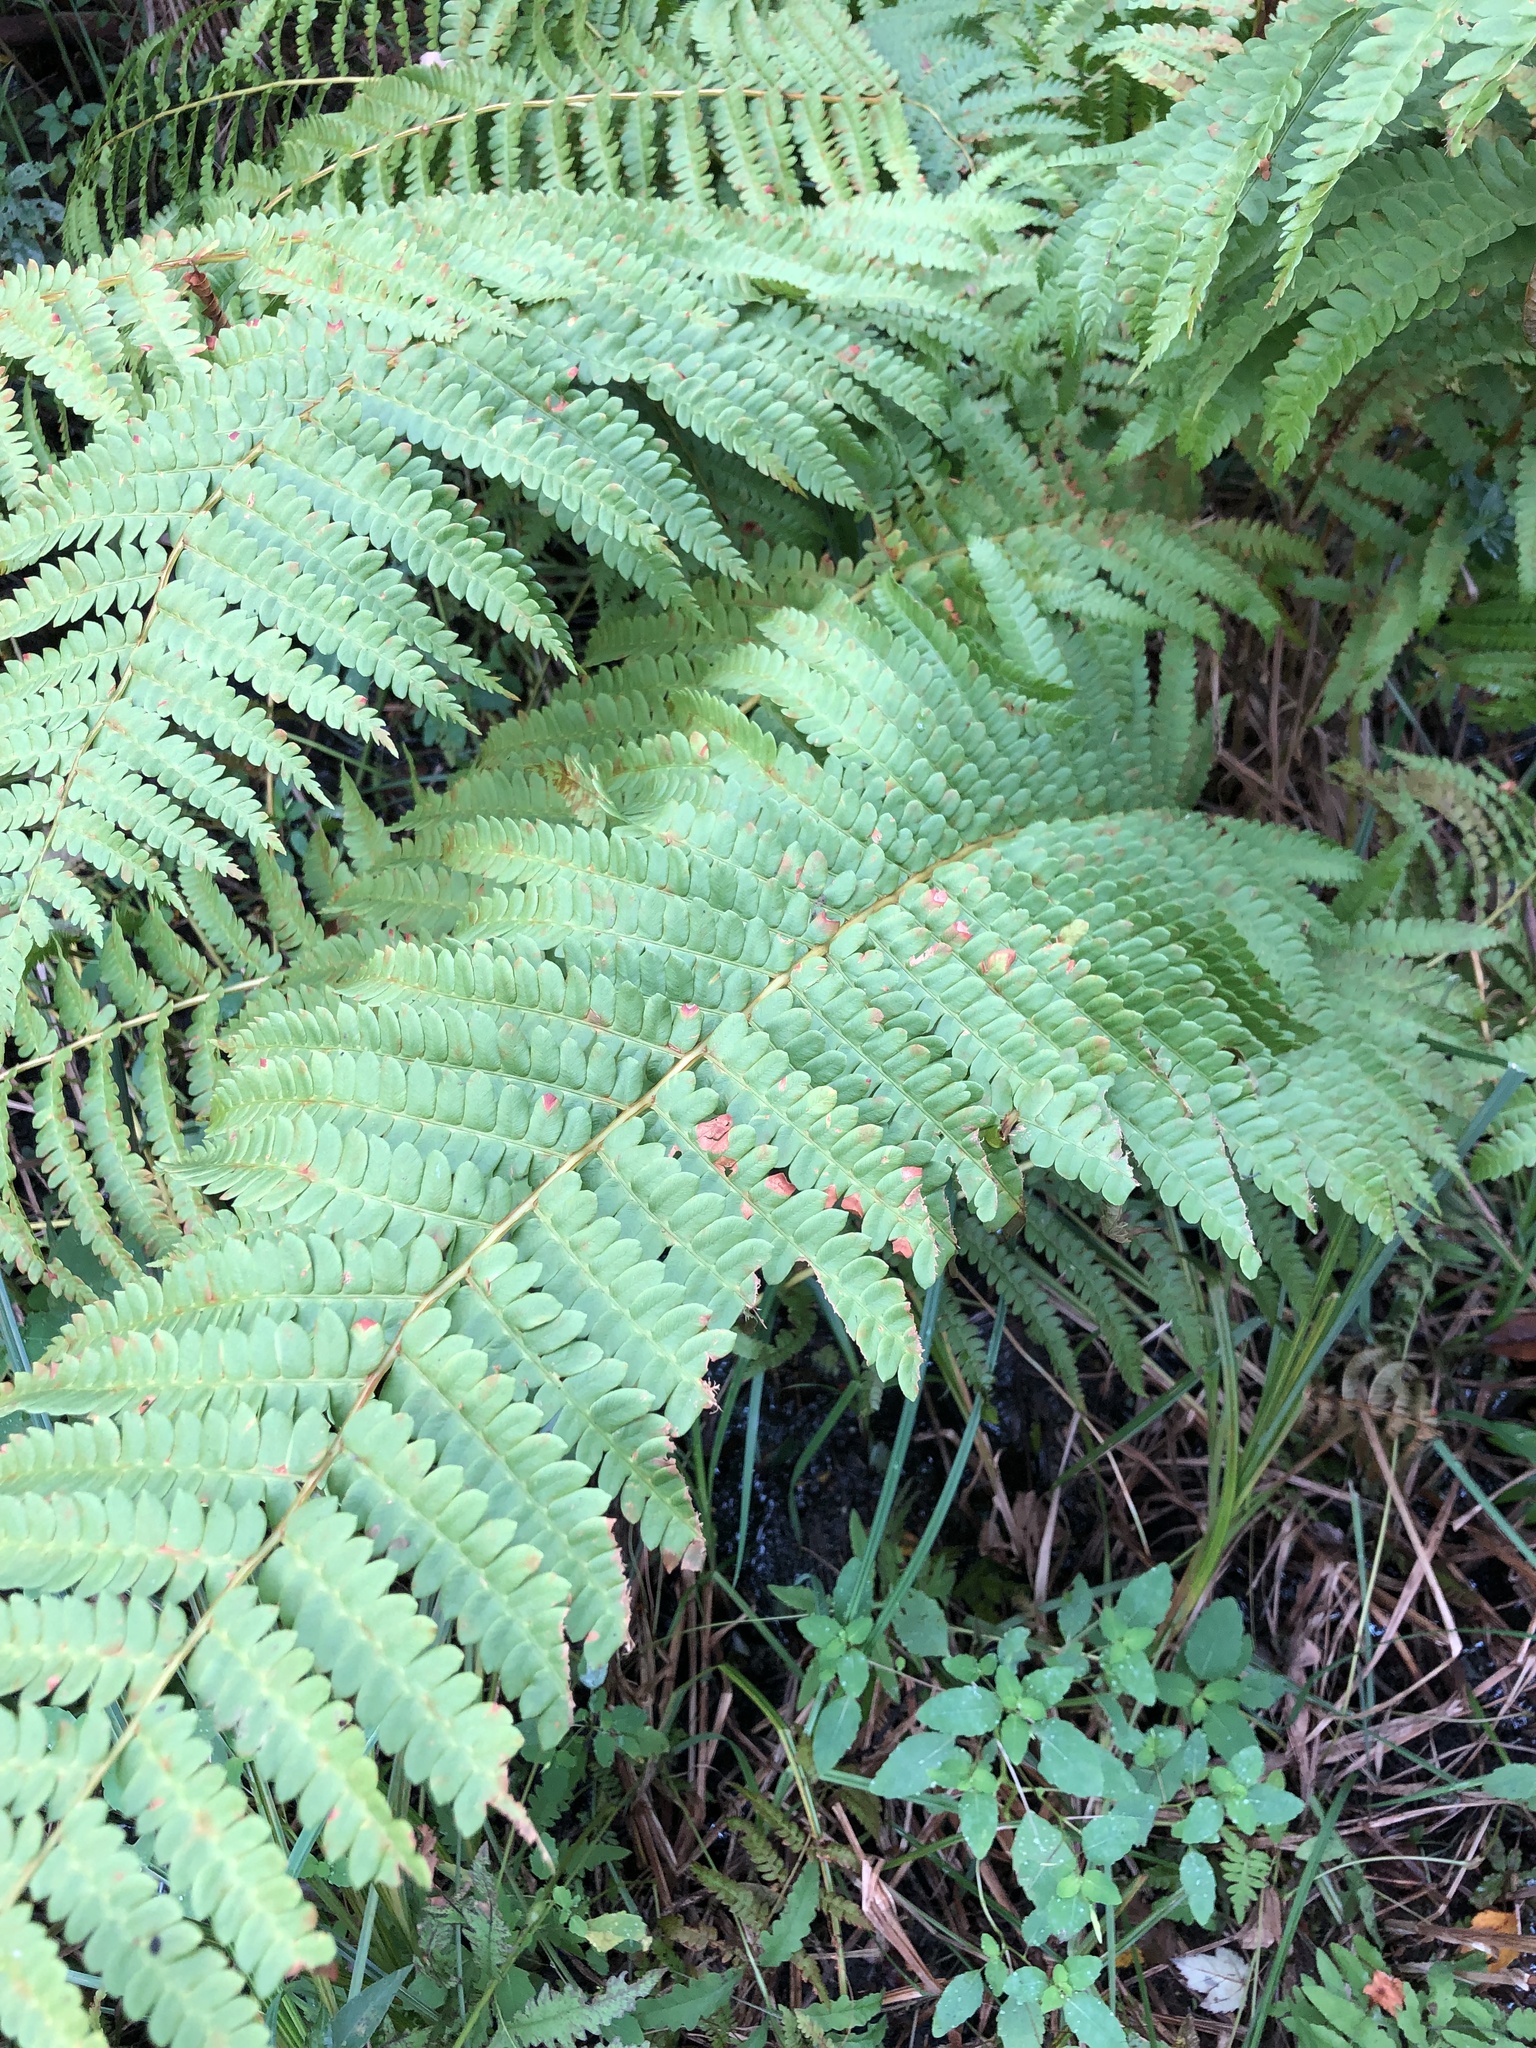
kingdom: Plantae
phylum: Tracheophyta
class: Polypodiopsida
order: Osmundales
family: Osmundaceae
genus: Osmundastrum
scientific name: Osmundastrum cinnamomeum
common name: Cinnamon fern
